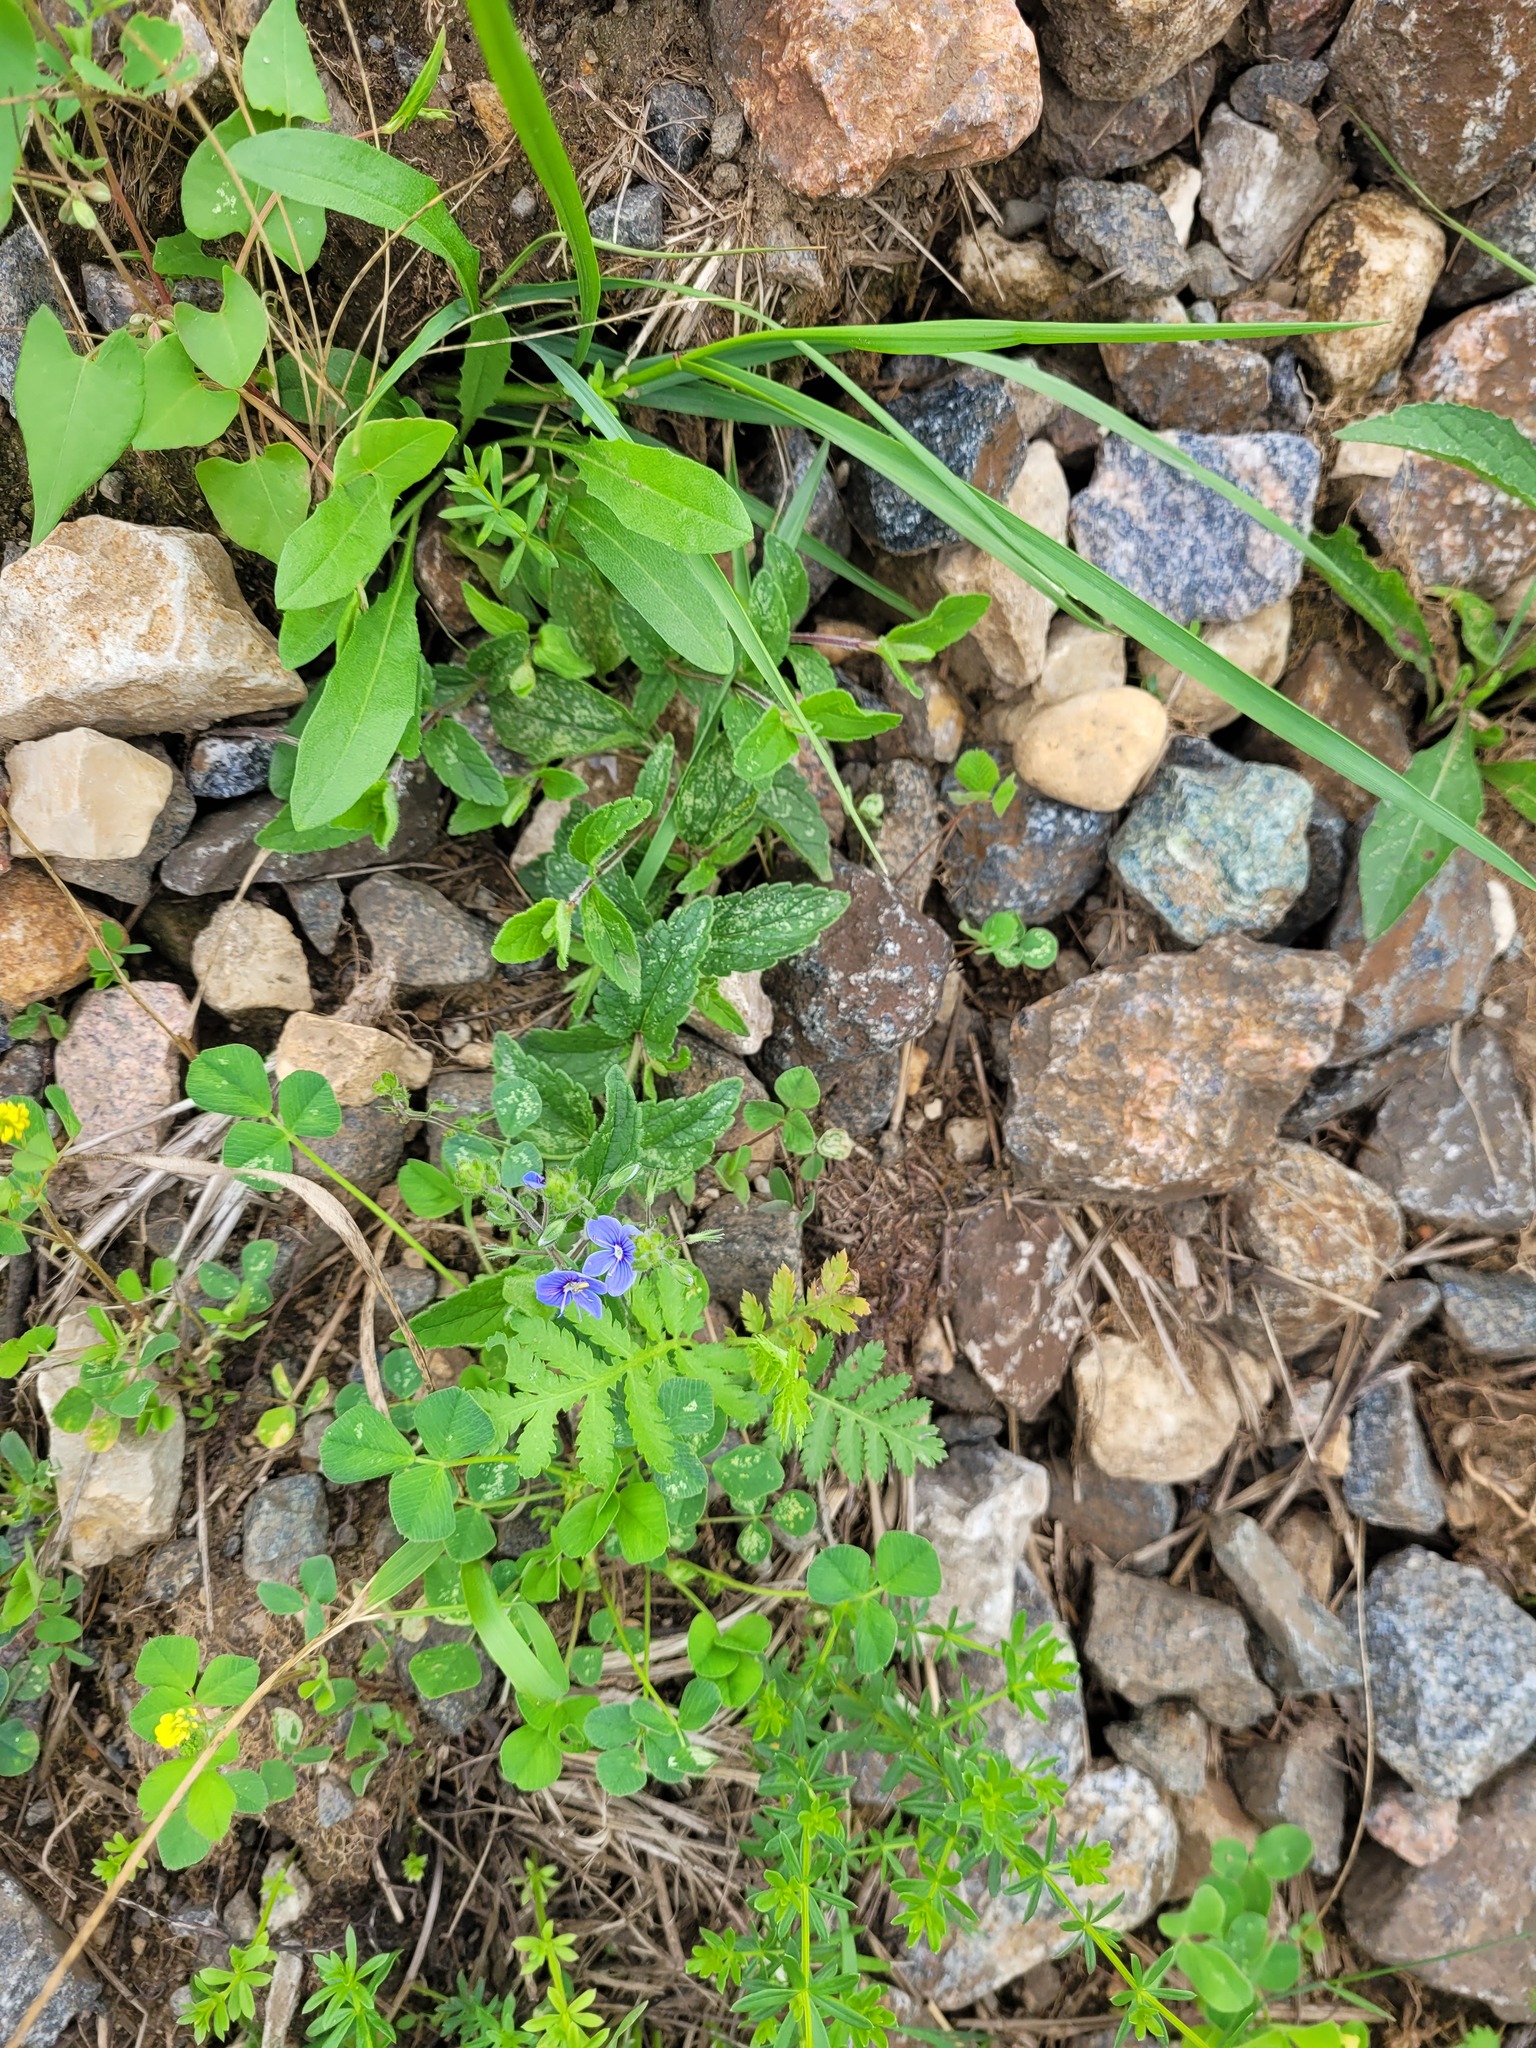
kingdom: Plantae
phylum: Tracheophyta
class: Magnoliopsida
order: Lamiales
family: Plantaginaceae
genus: Veronica
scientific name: Veronica chamaedrys
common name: Germander speedwell
